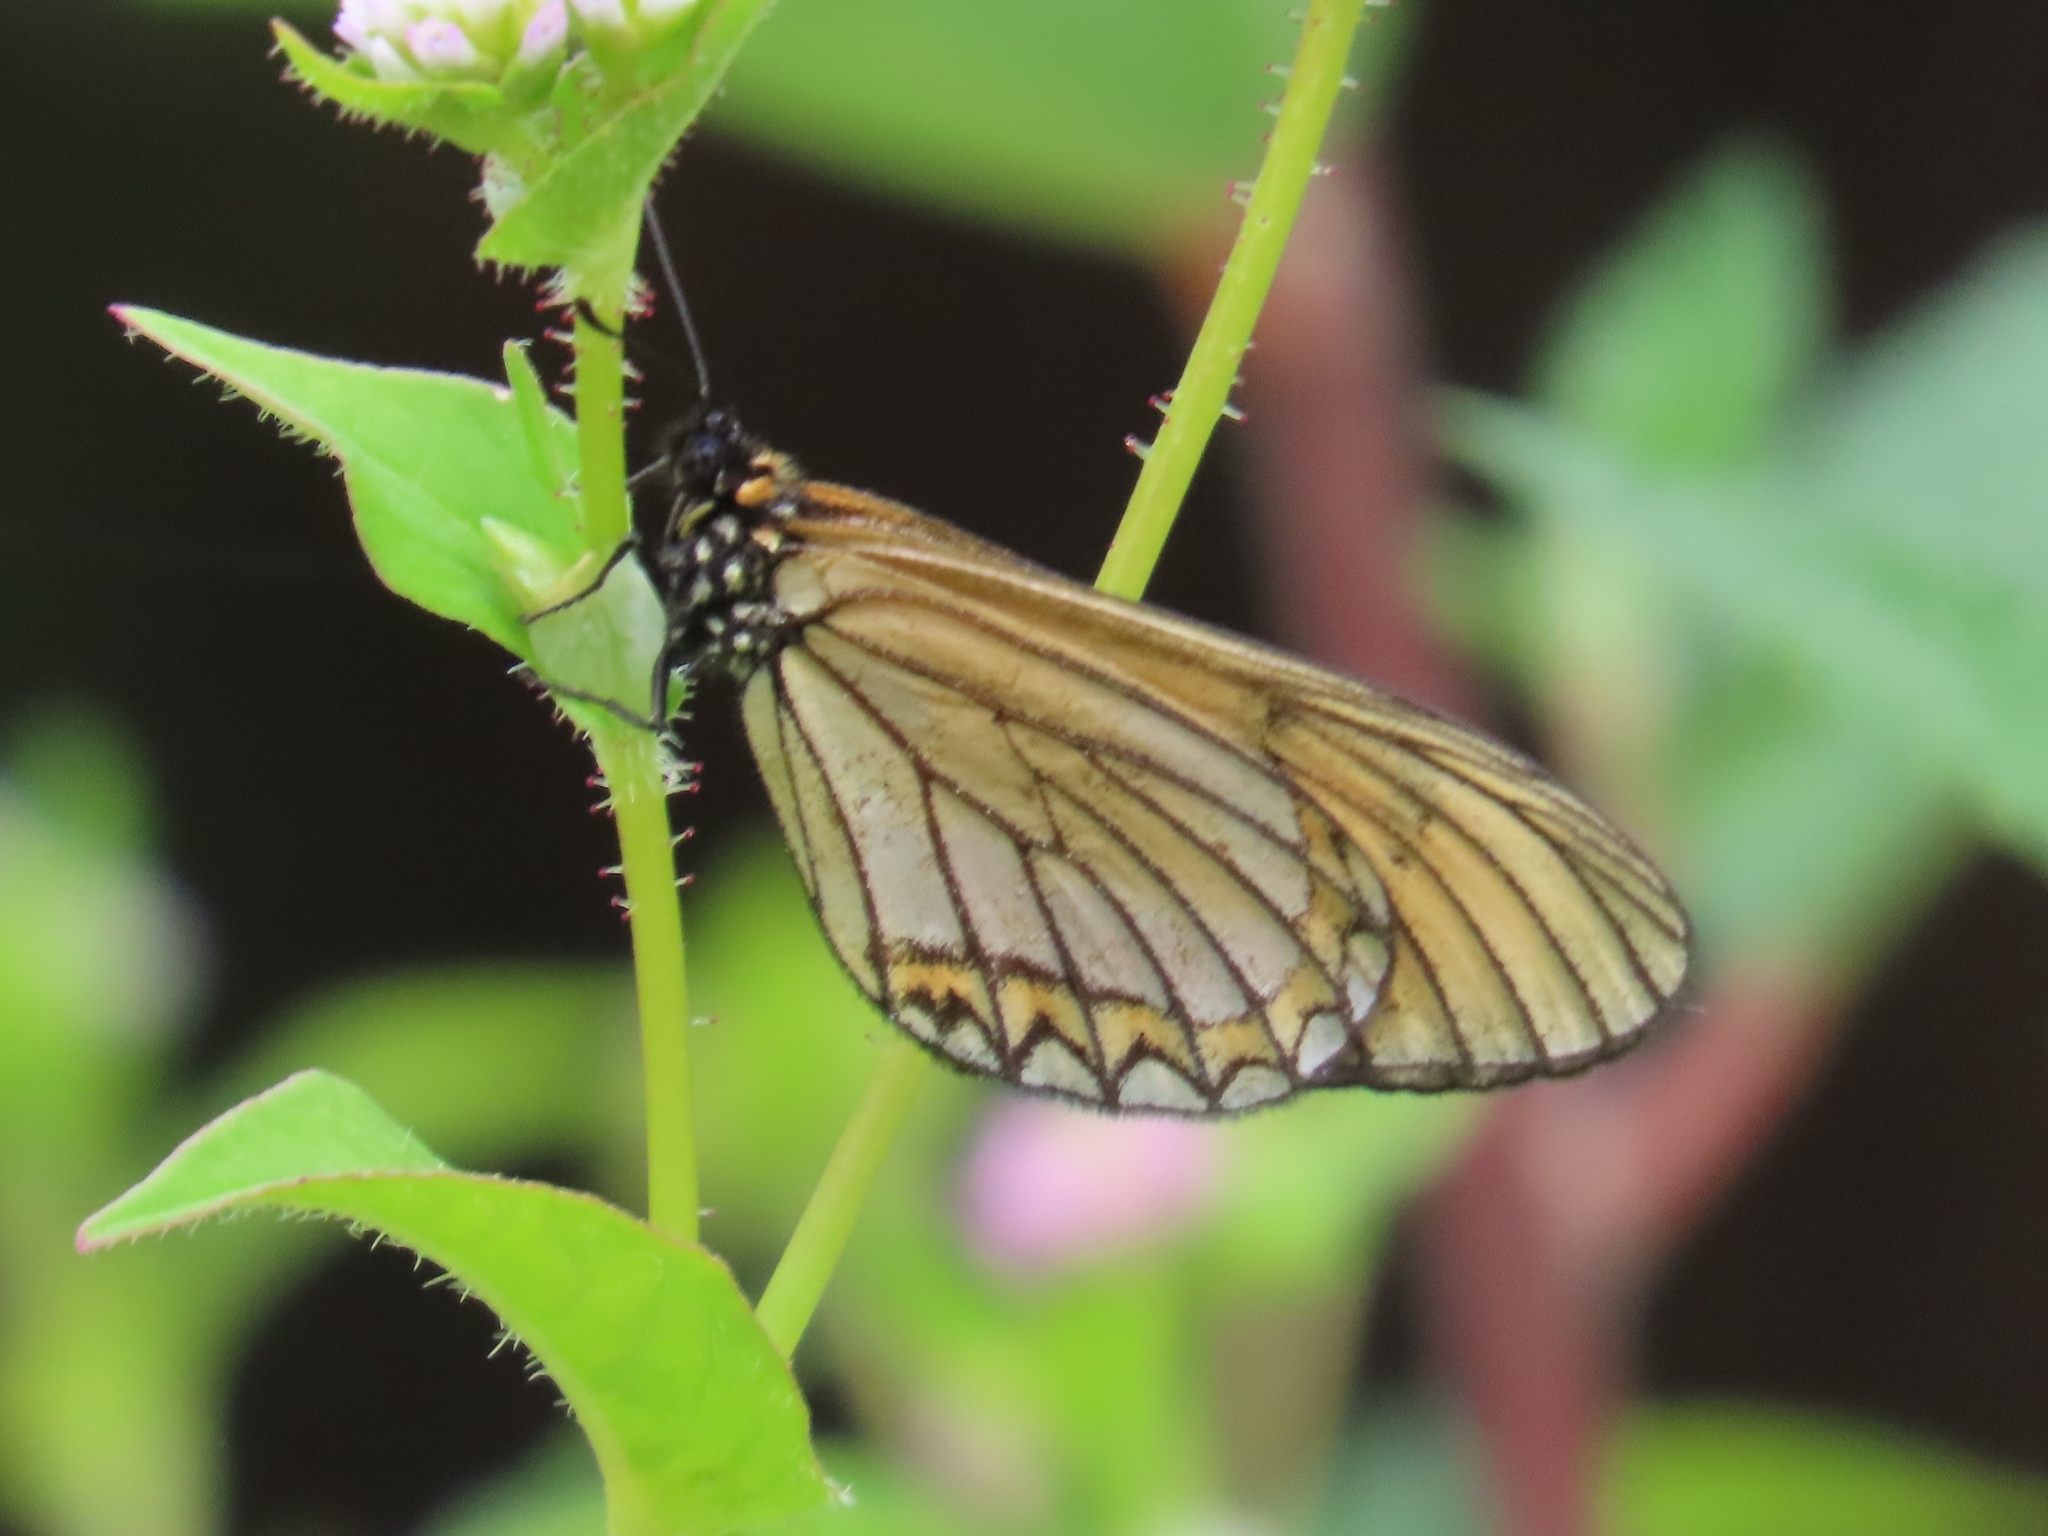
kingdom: Animalia
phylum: Arthropoda
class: Insecta
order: Lepidoptera
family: Nymphalidae
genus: Acraea
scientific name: Acraea Telchinia issoria
